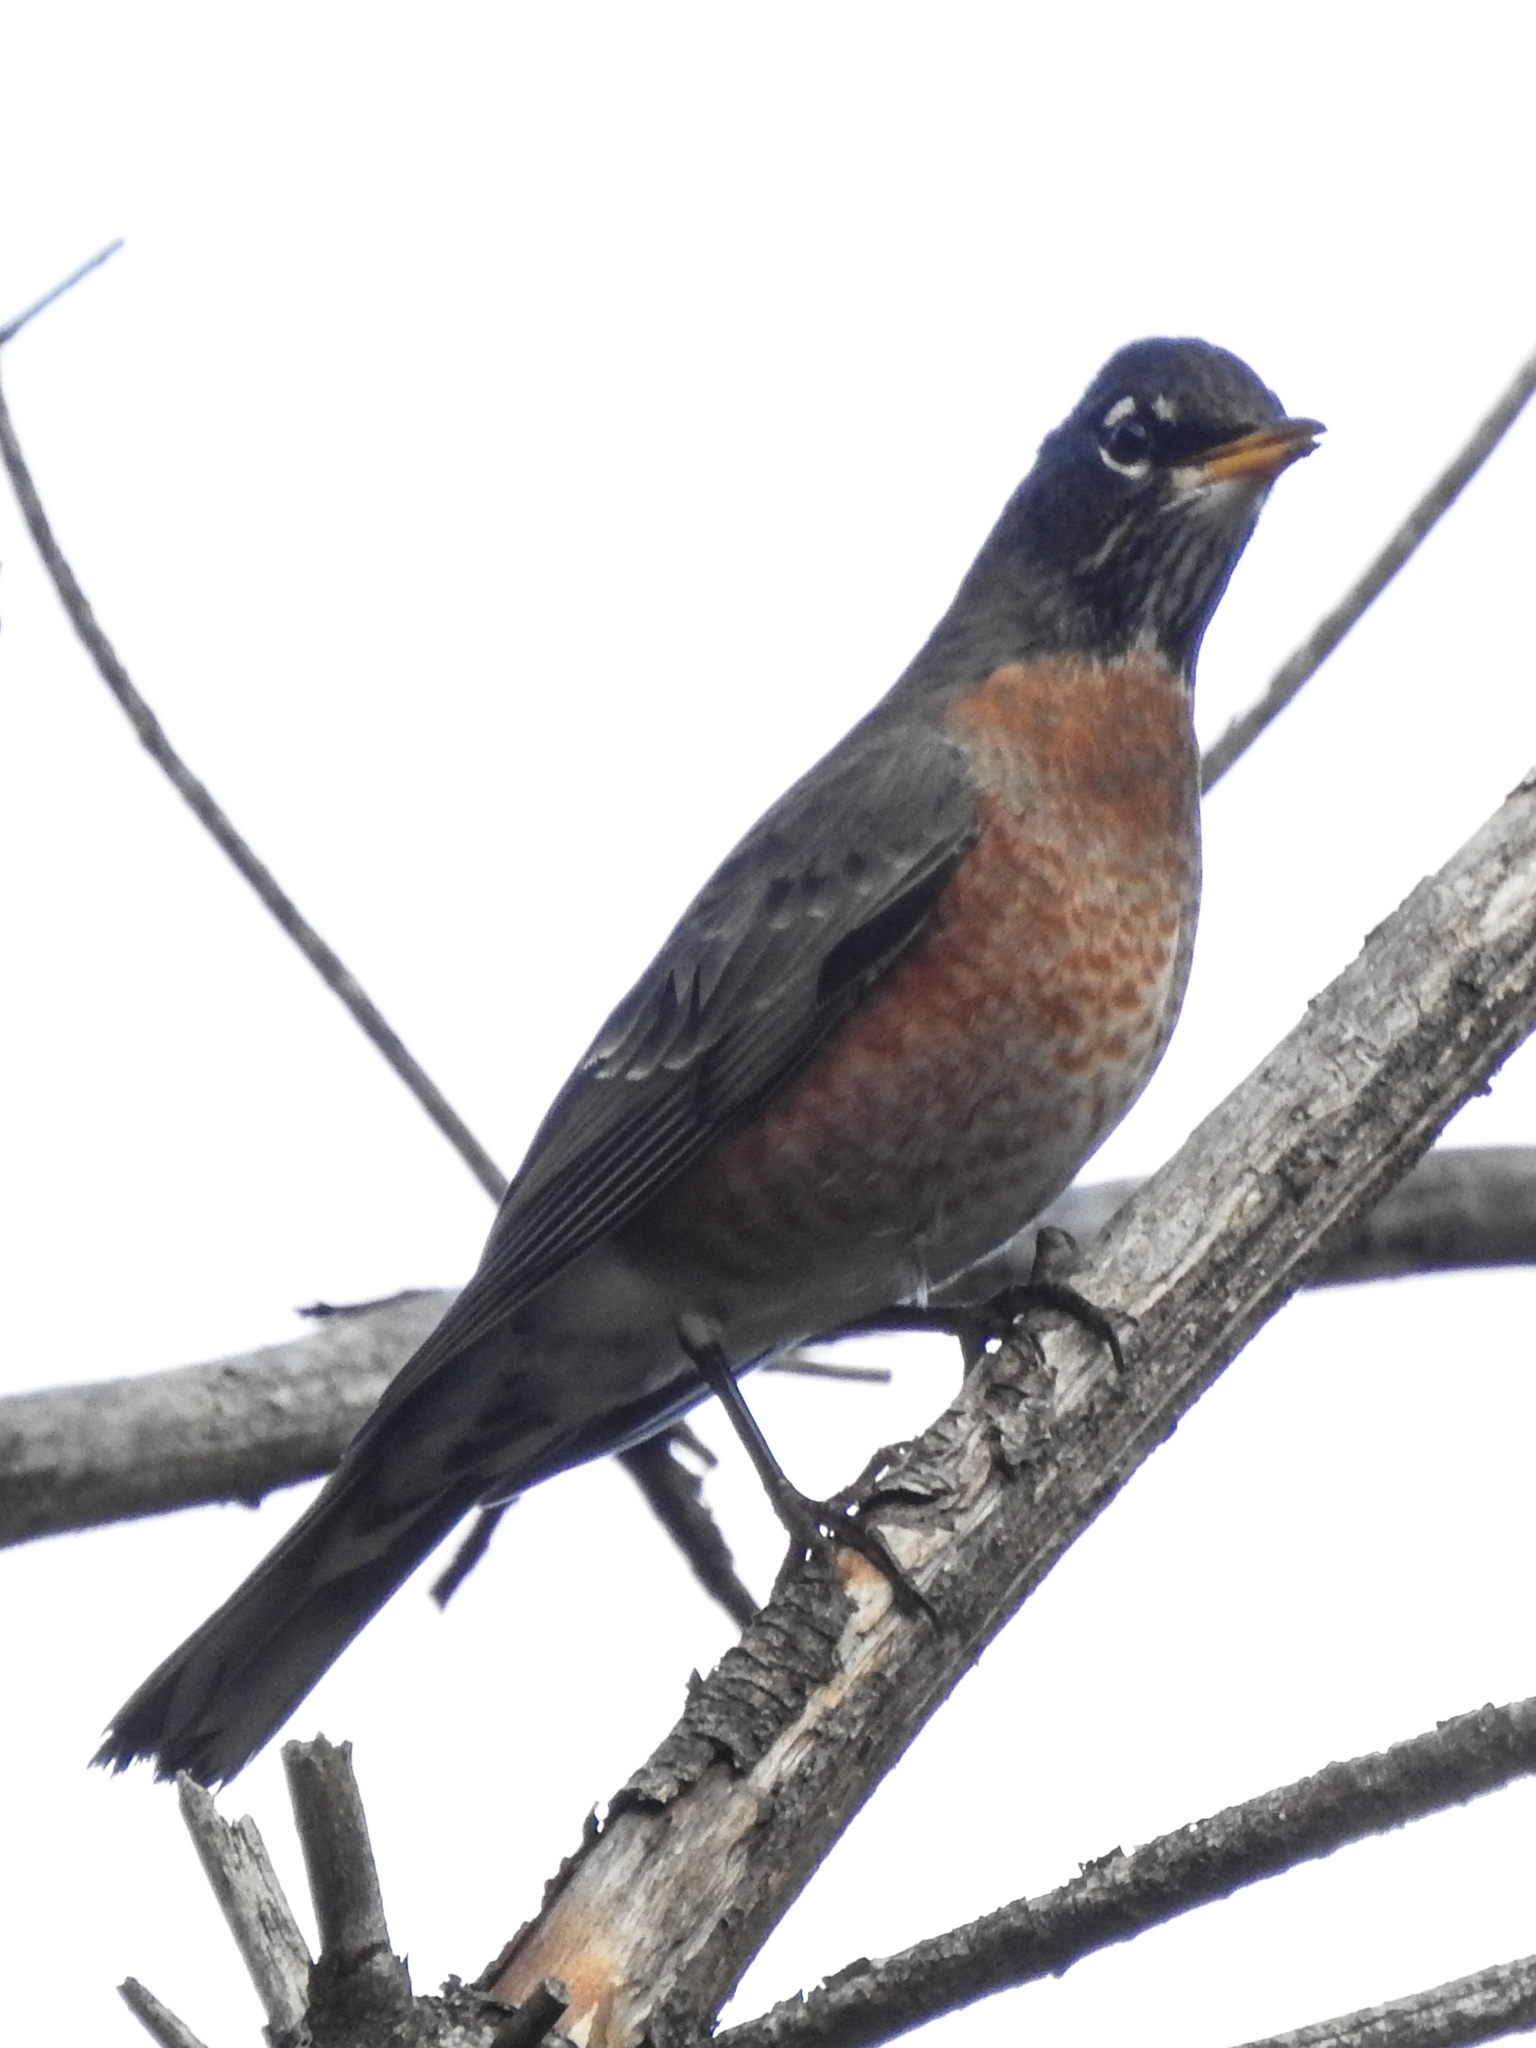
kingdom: Animalia
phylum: Chordata
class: Aves
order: Passeriformes
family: Turdidae
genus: Turdus
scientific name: Turdus migratorius
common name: American robin
